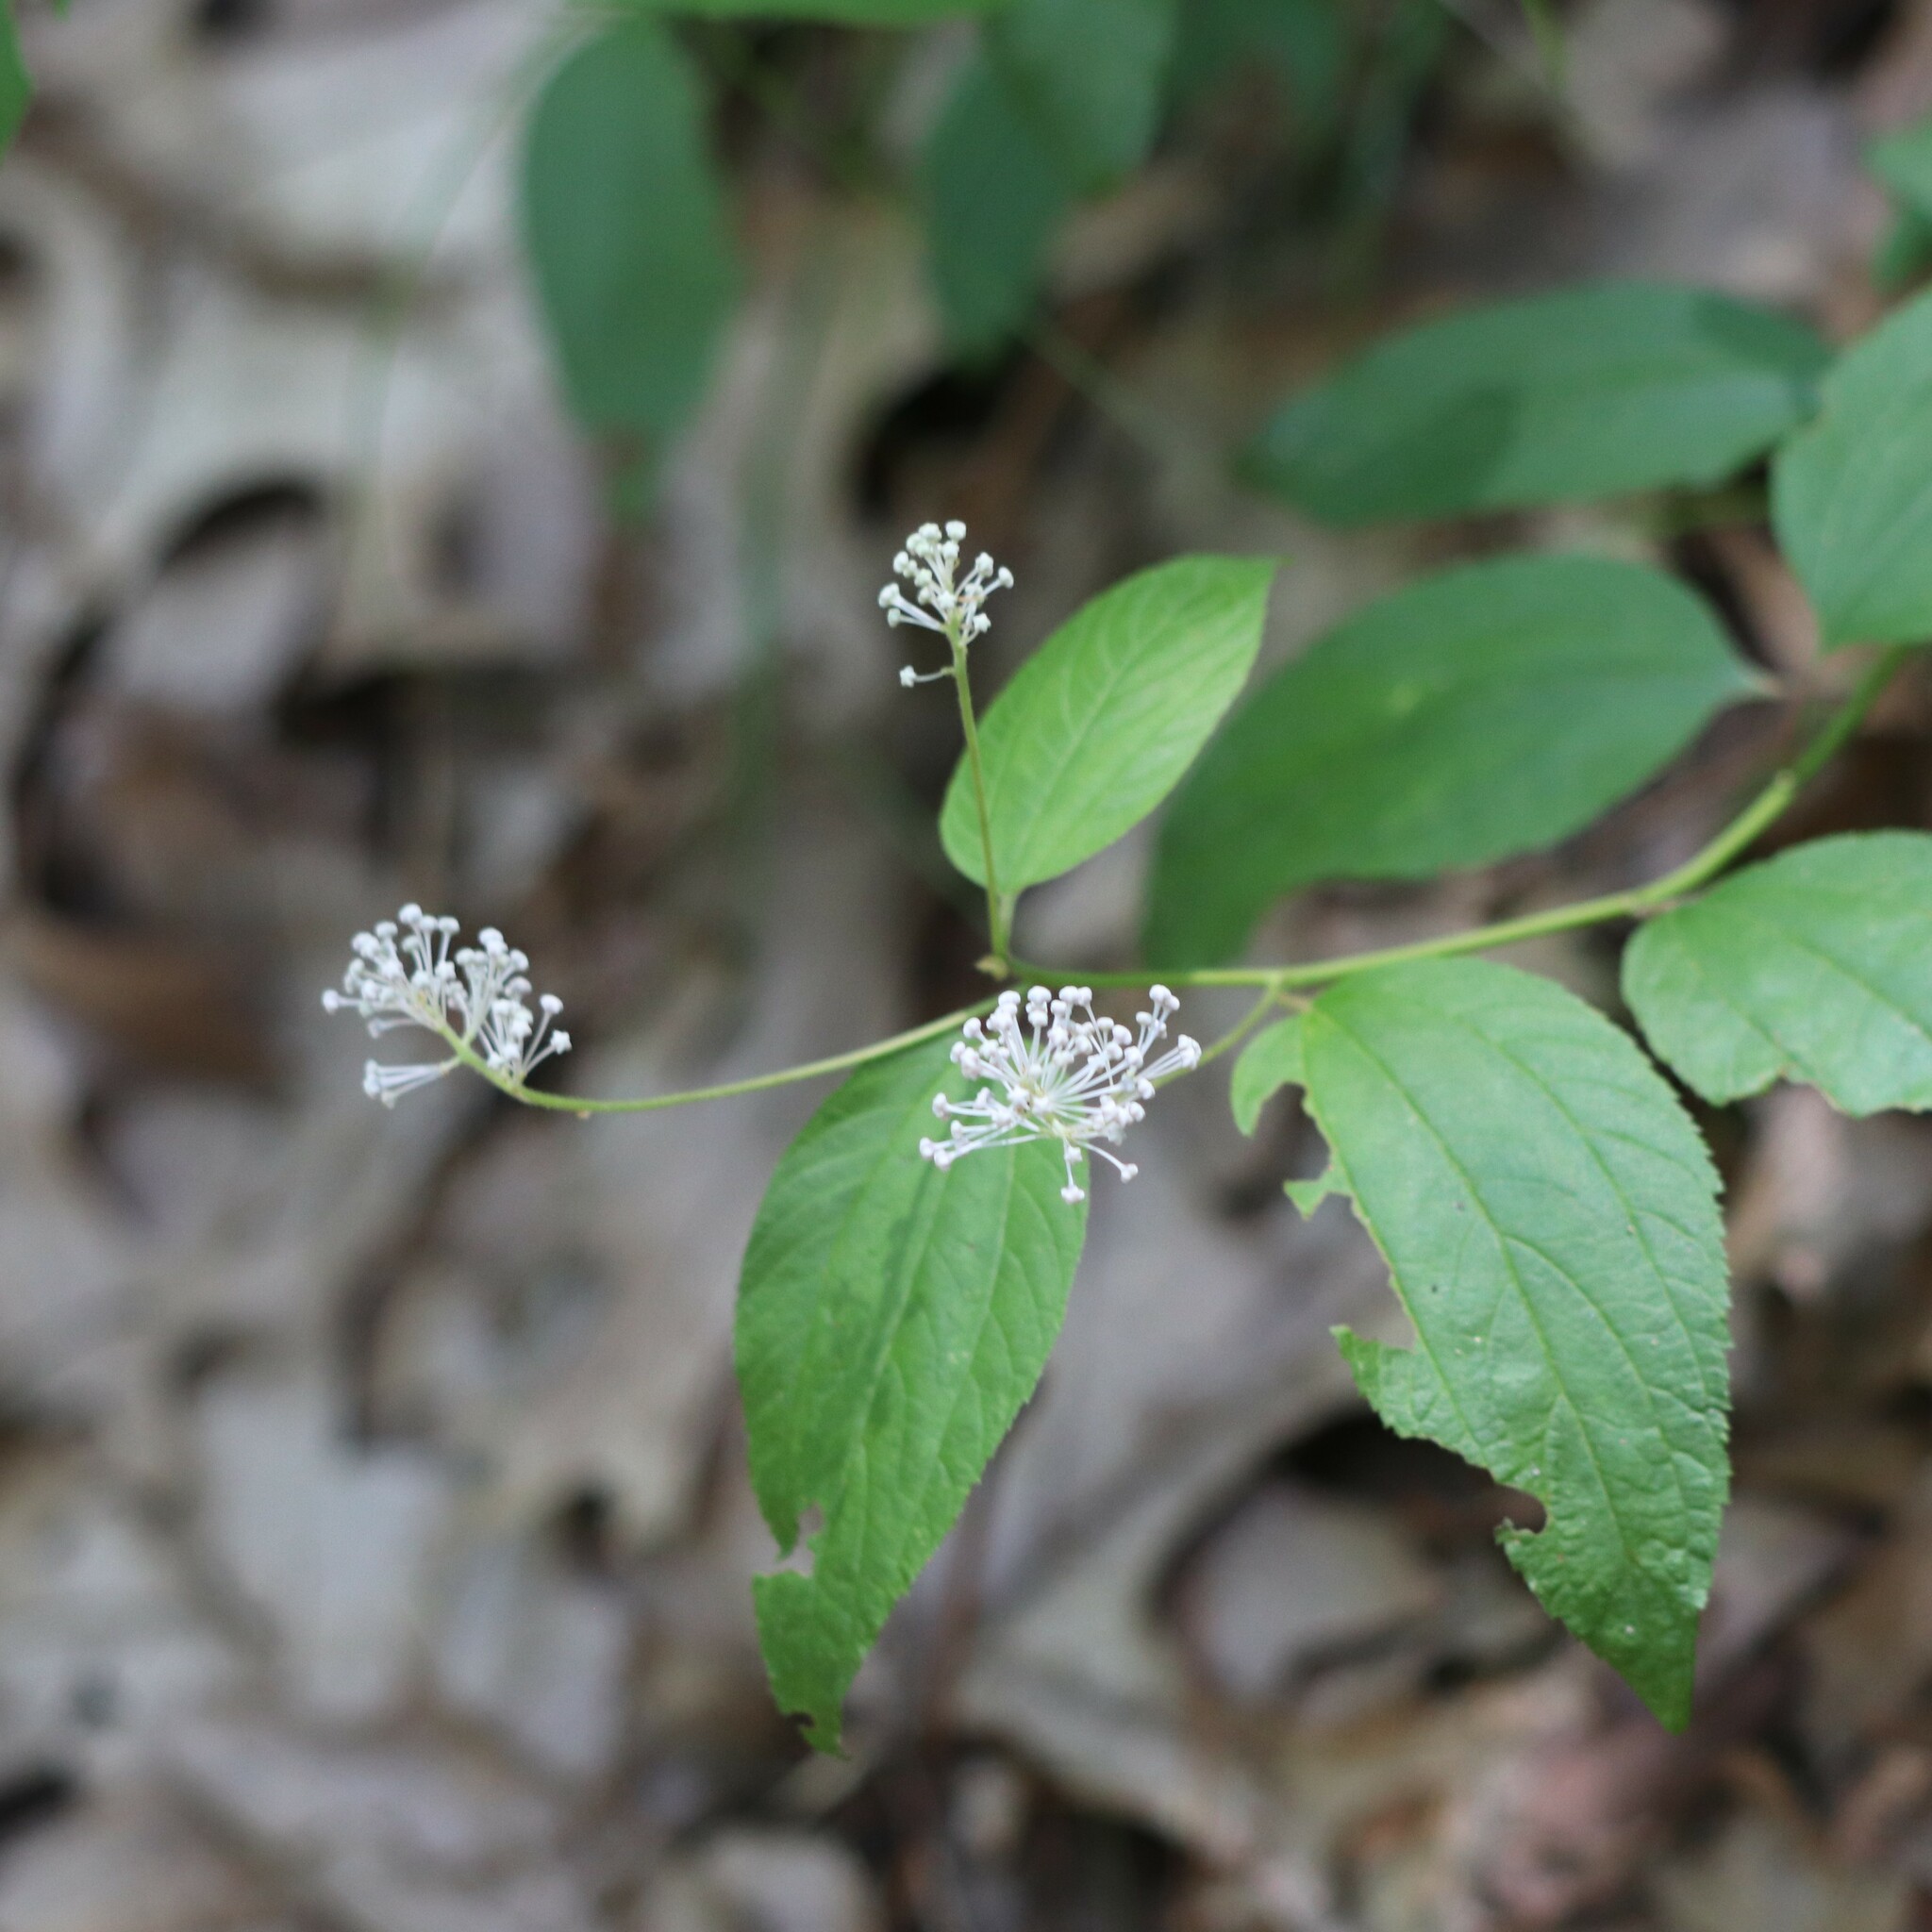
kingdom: Plantae
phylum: Tracheophyta
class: Magnoliopsida
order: Rosales
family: Rhamnaceae
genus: Ceanothus
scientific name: Ceanothus americanus
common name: Redroot
